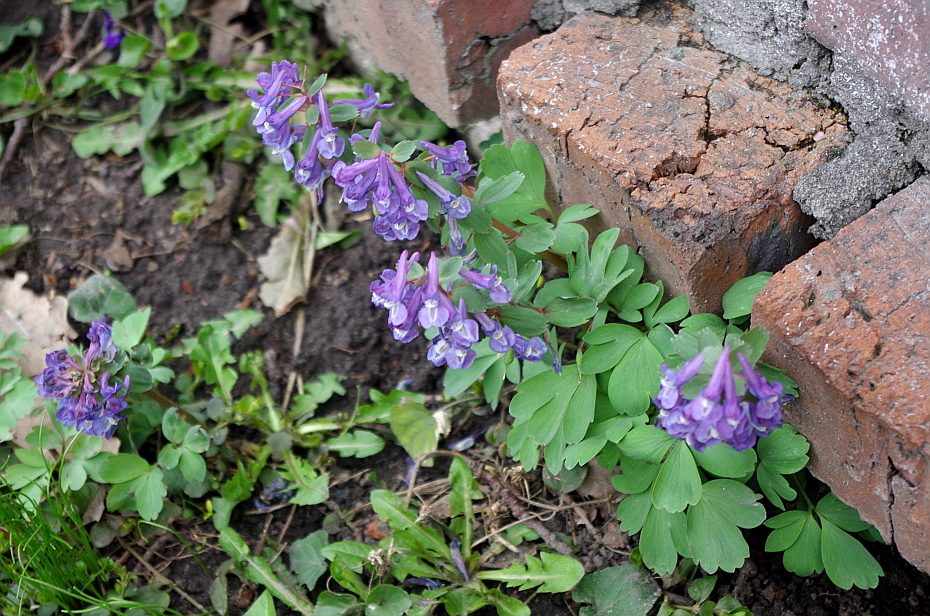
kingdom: Plantae
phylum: Tracheophyta
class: Magnoliopsida
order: Ranunculales
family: Papaveraceae
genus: Corydalis
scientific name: Corydalis solida
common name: Bird-in-a-bush
